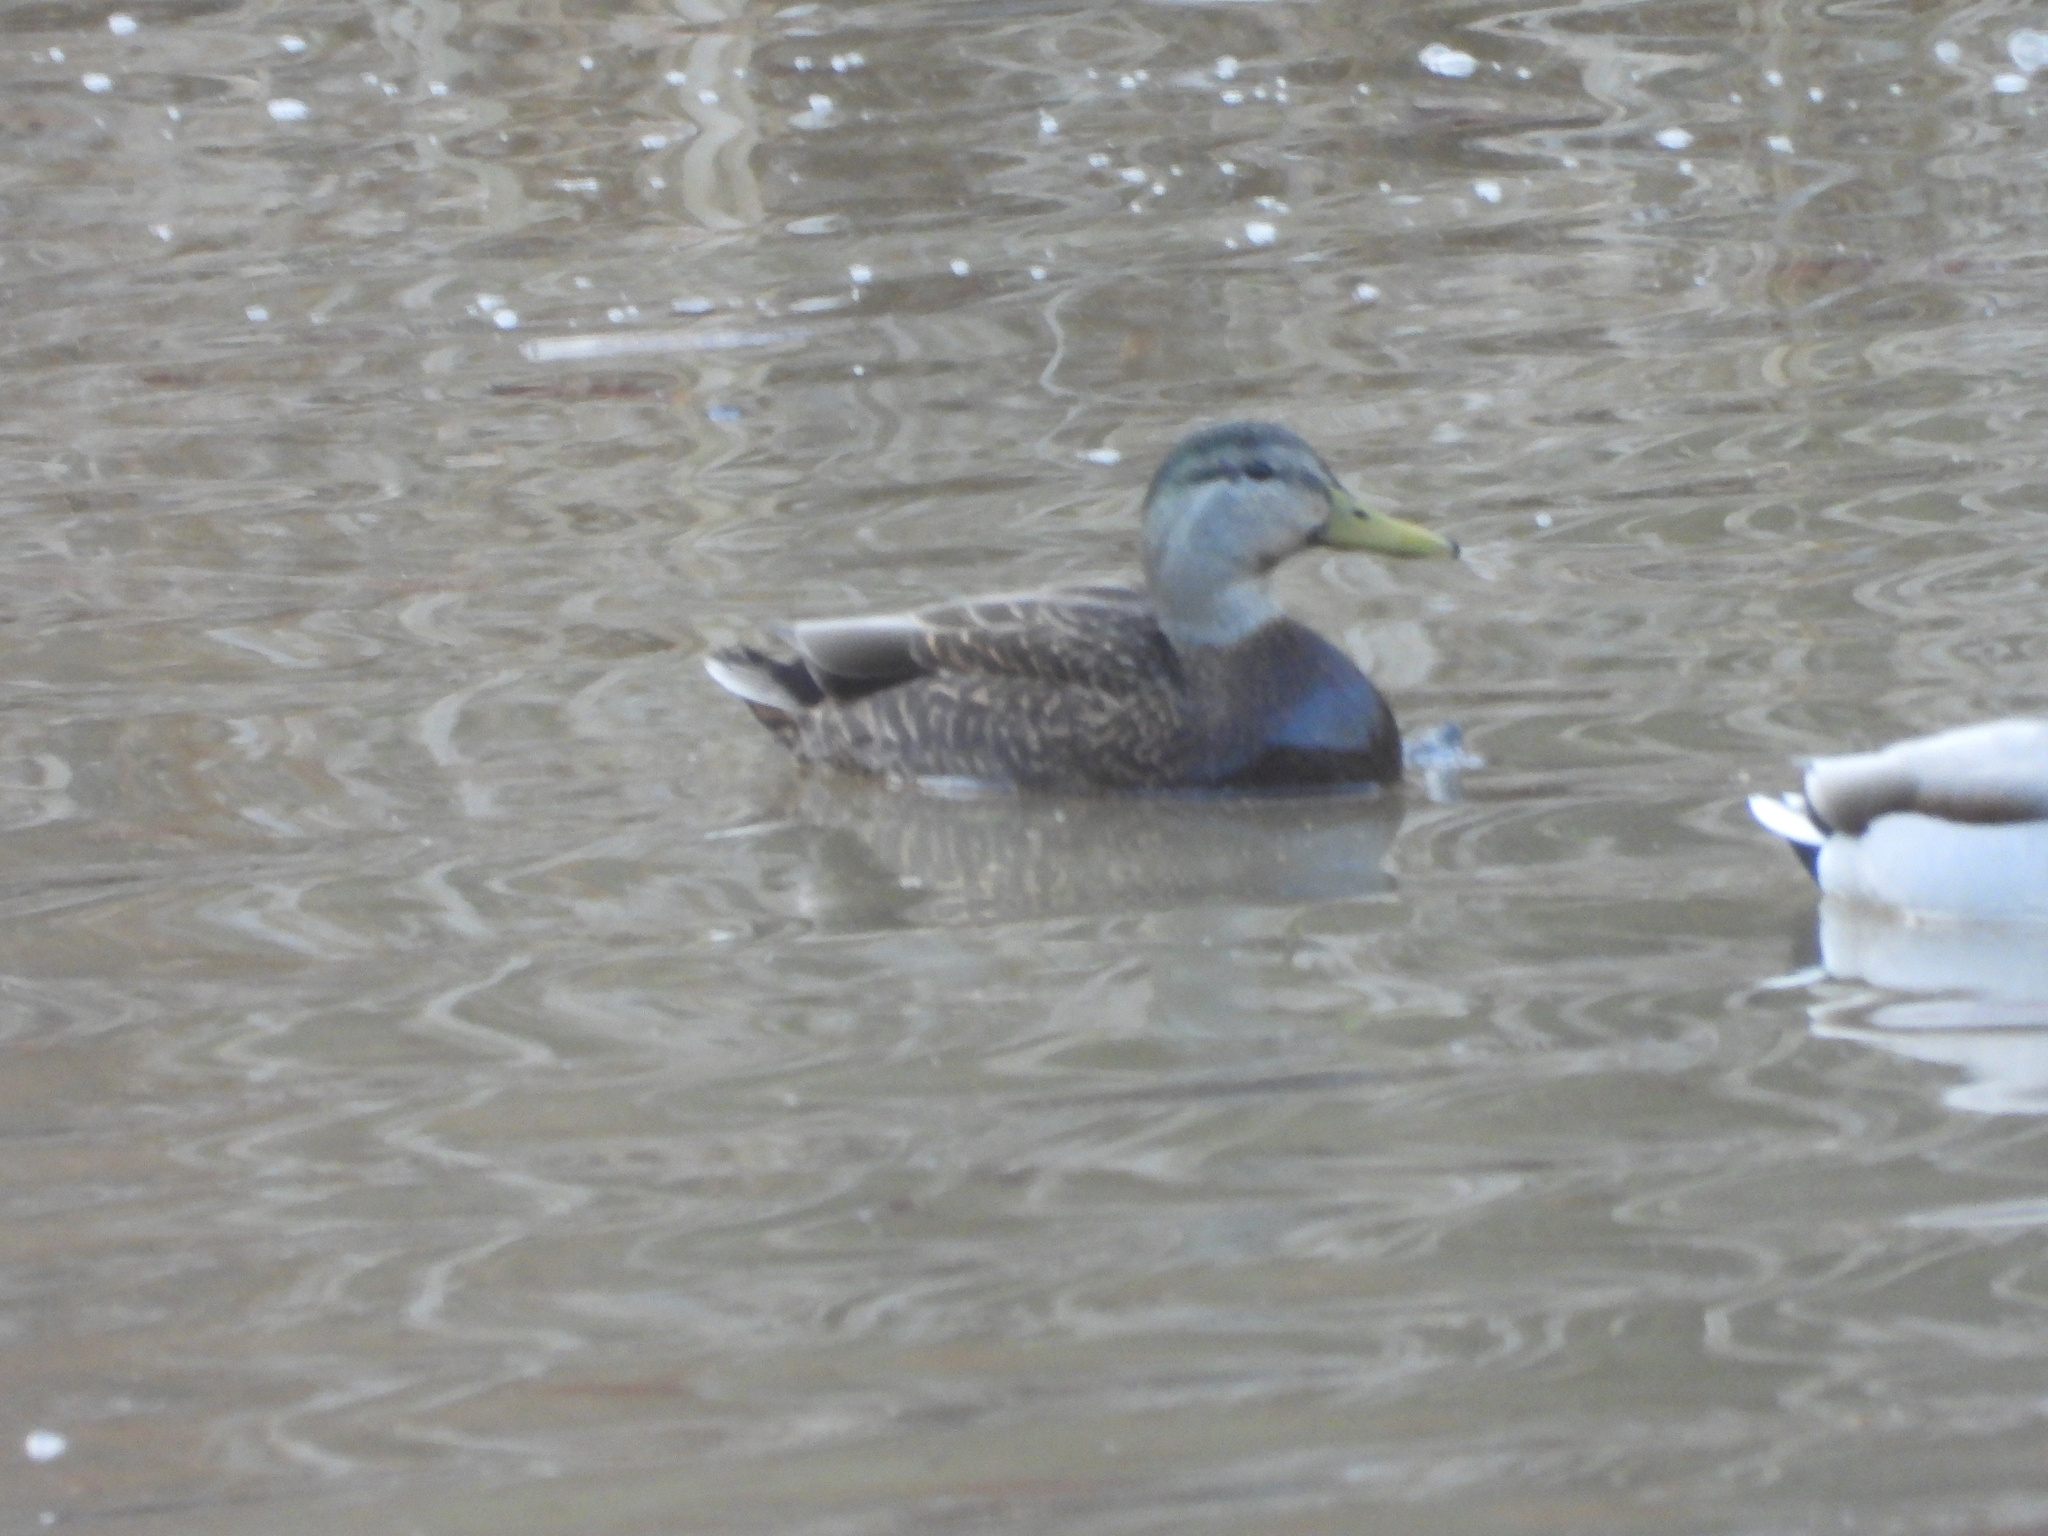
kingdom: Animalia
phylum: Chordata
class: Aves
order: Anseriformes
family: Anatidae
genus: Anas
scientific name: Anas
